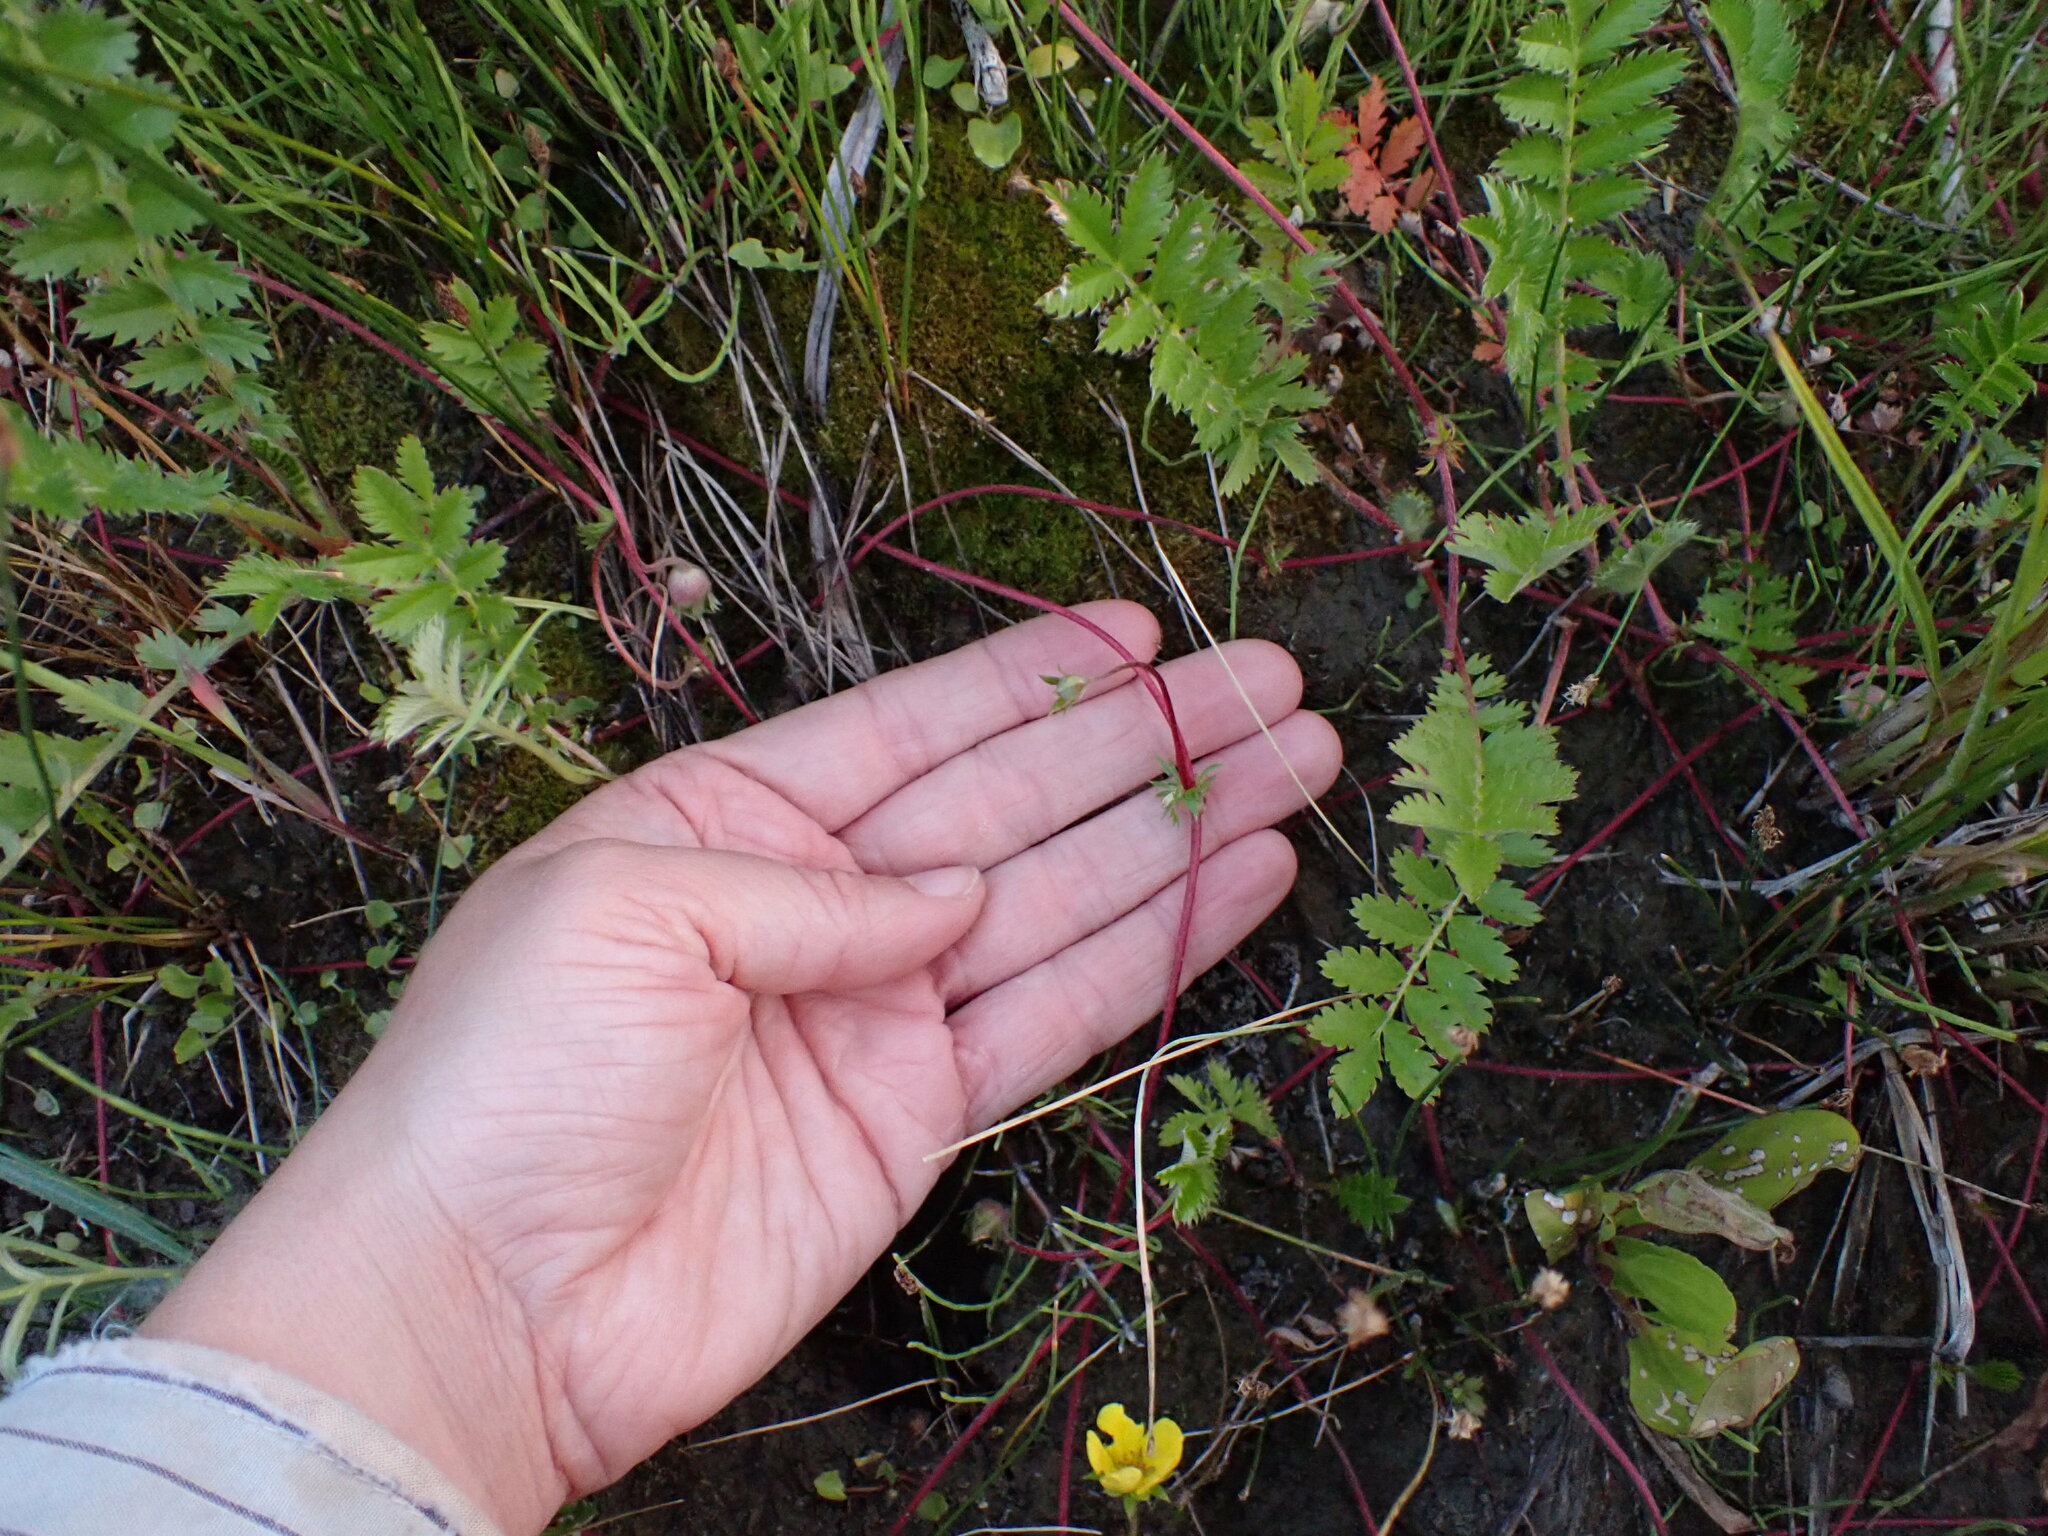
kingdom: Plantae
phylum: Tracheophyta
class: Magnoliopsida
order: Rosales
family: Rosaceae
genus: Argentina
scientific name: Argentina anserina
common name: Common silverweed
